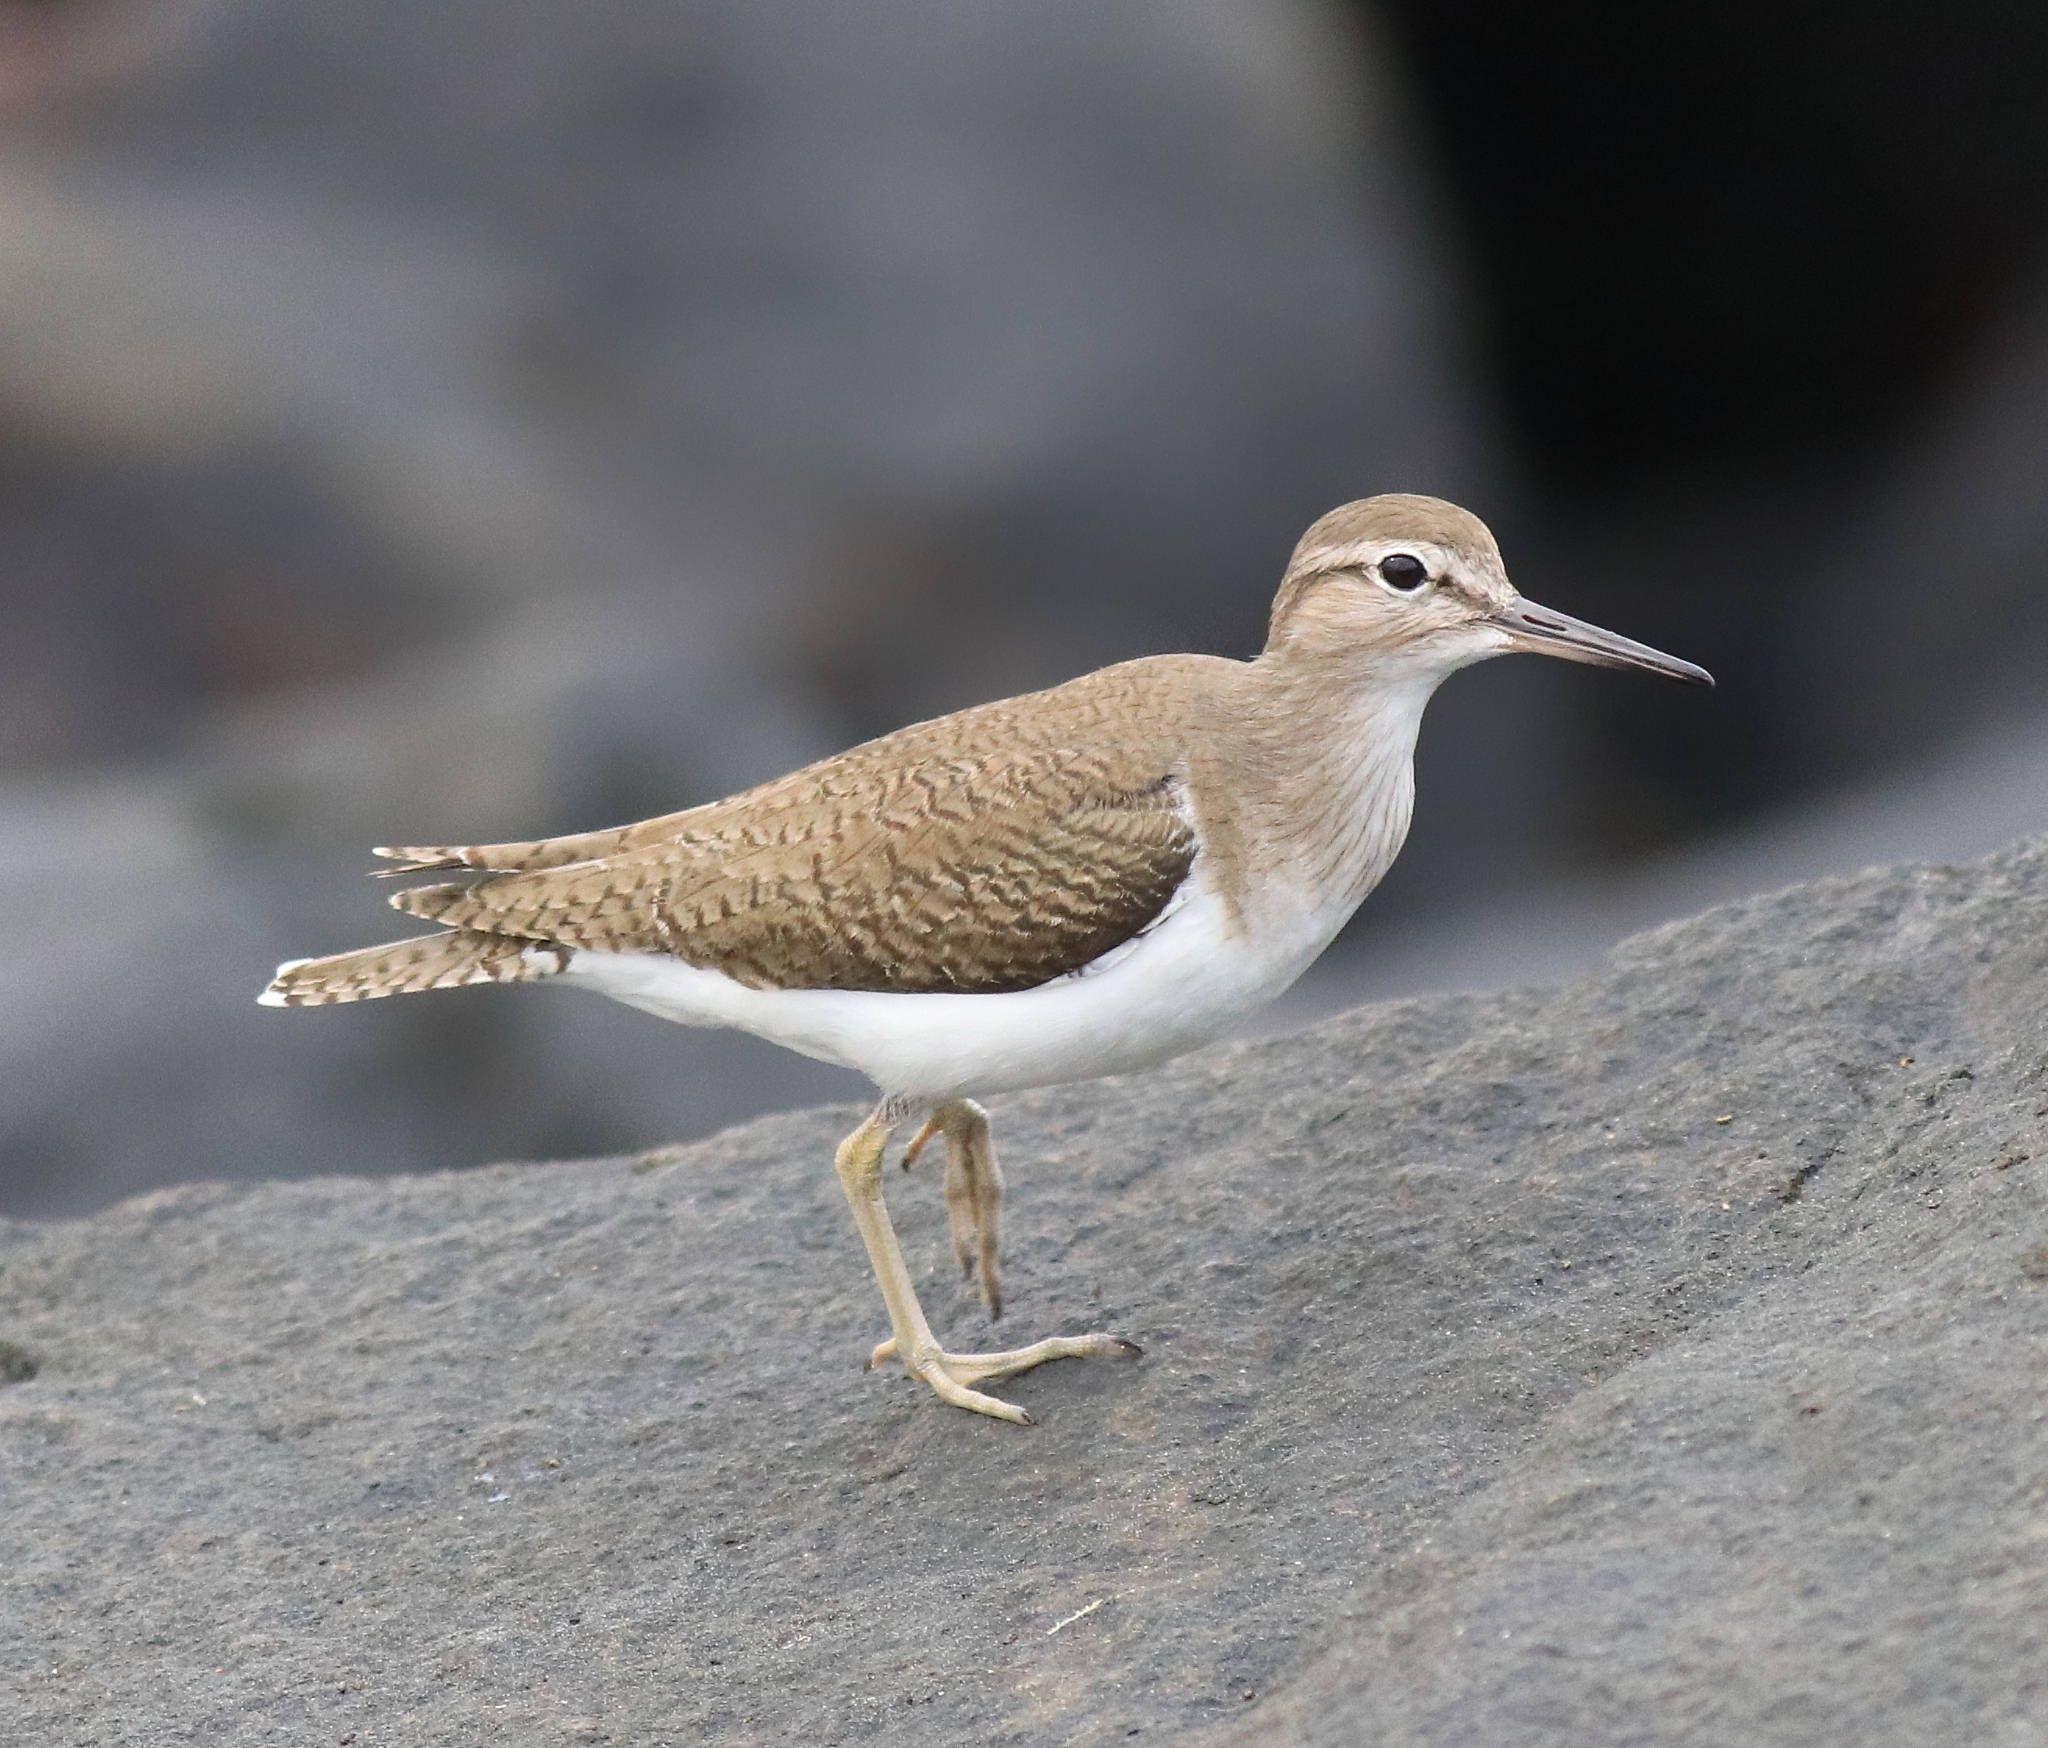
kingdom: Animalia
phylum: Chordata
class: Aves
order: Charadriiformes
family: Scolopacidae
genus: Actitis
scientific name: Actitis hypoleucos
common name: Common sandpiper
